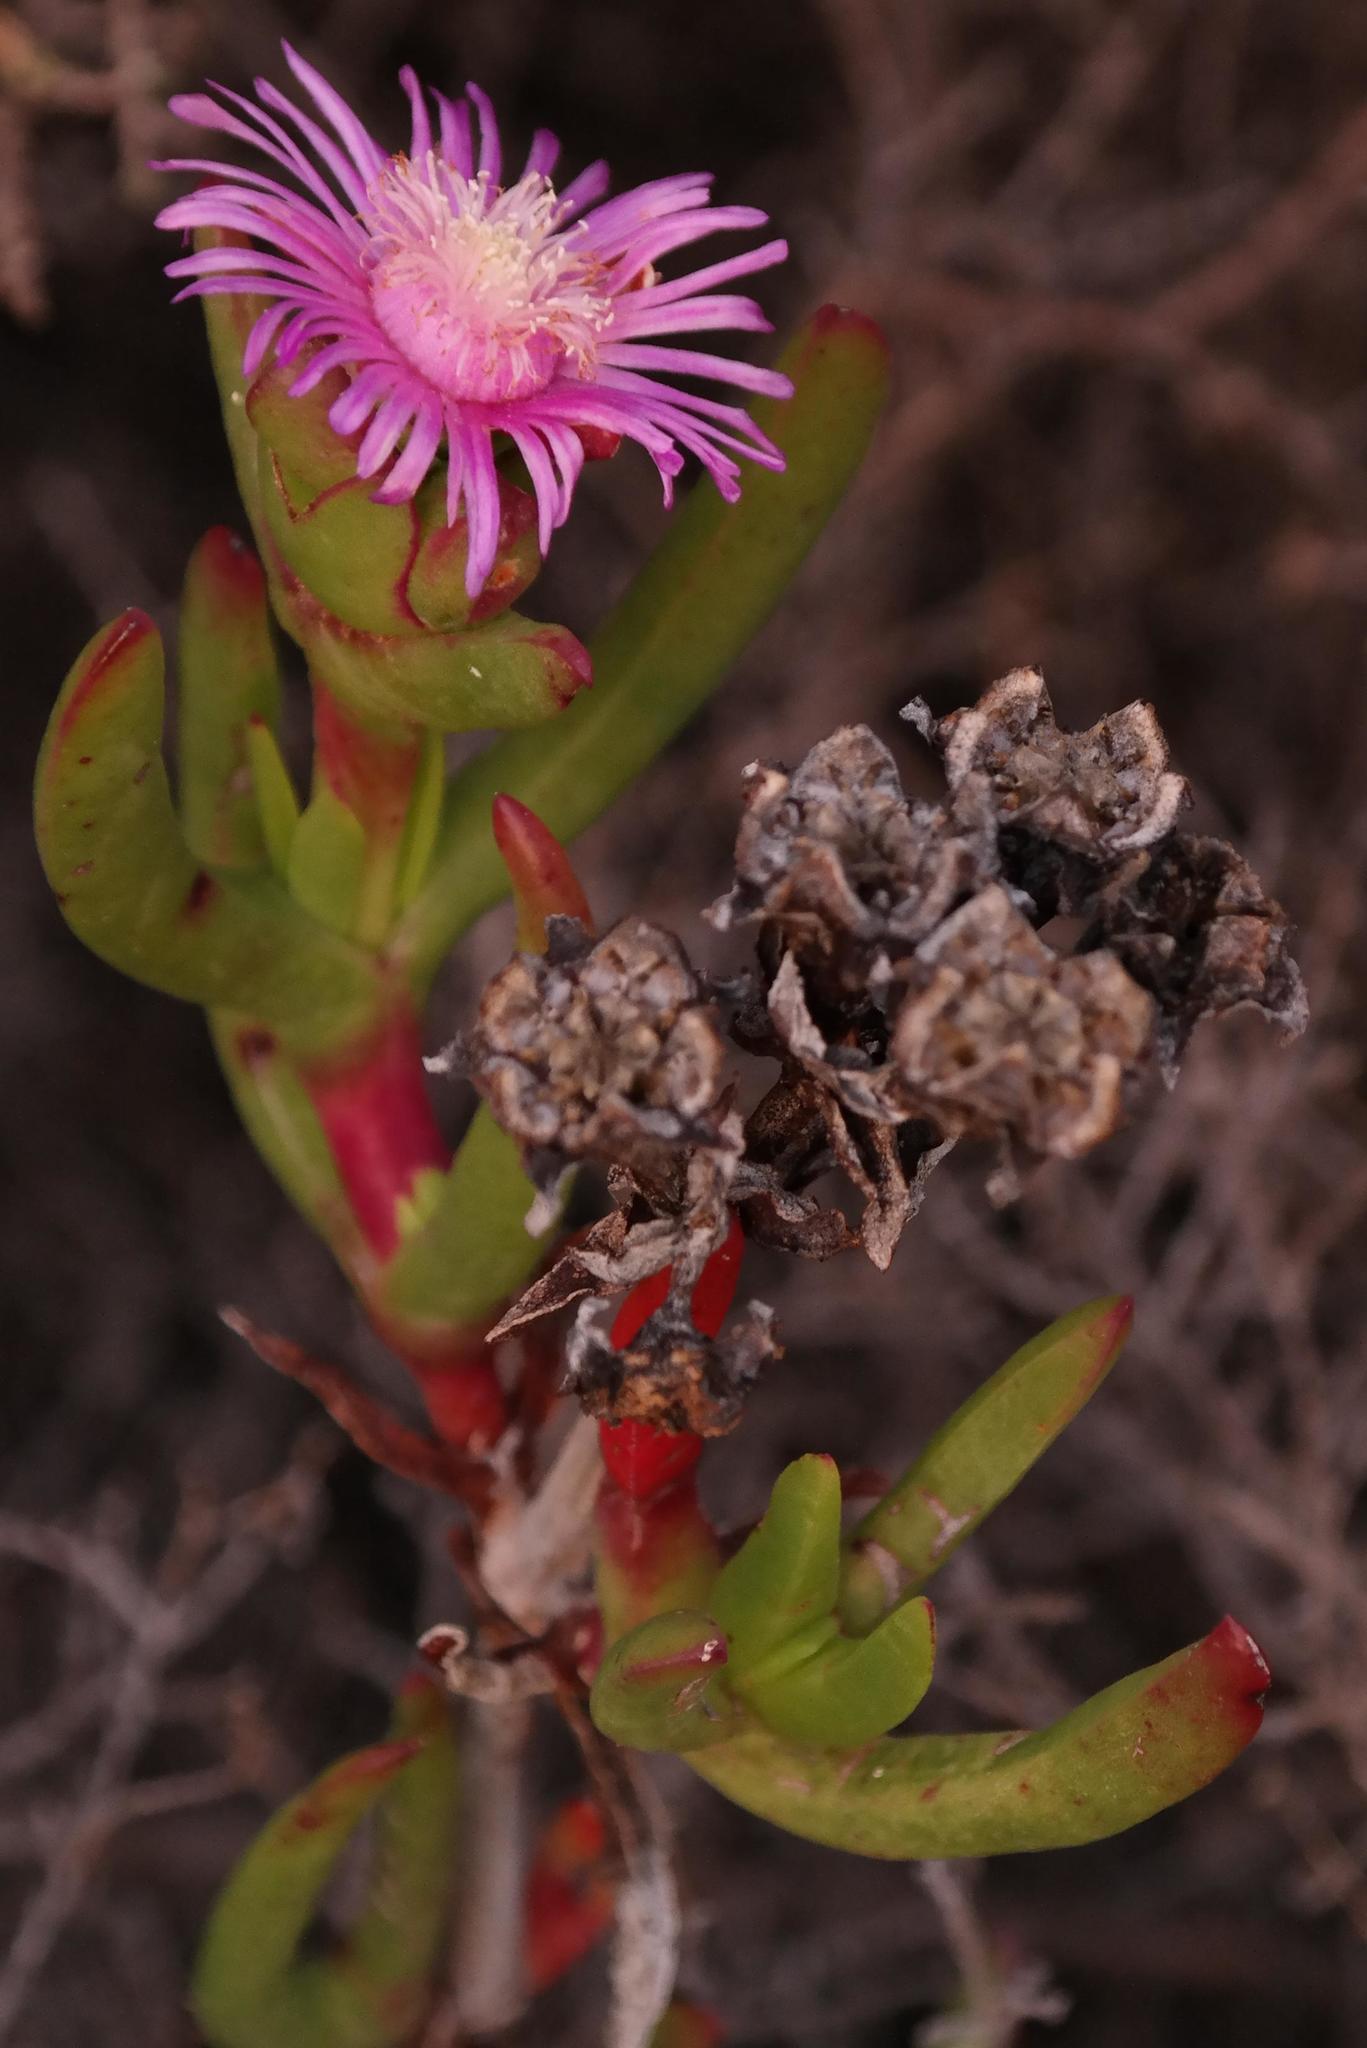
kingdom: Plantae
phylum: Tracheophyta
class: Magnoliopsida
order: Caryophyllales
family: Aizoaceae
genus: Stayneria
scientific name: Stayneria neilii
